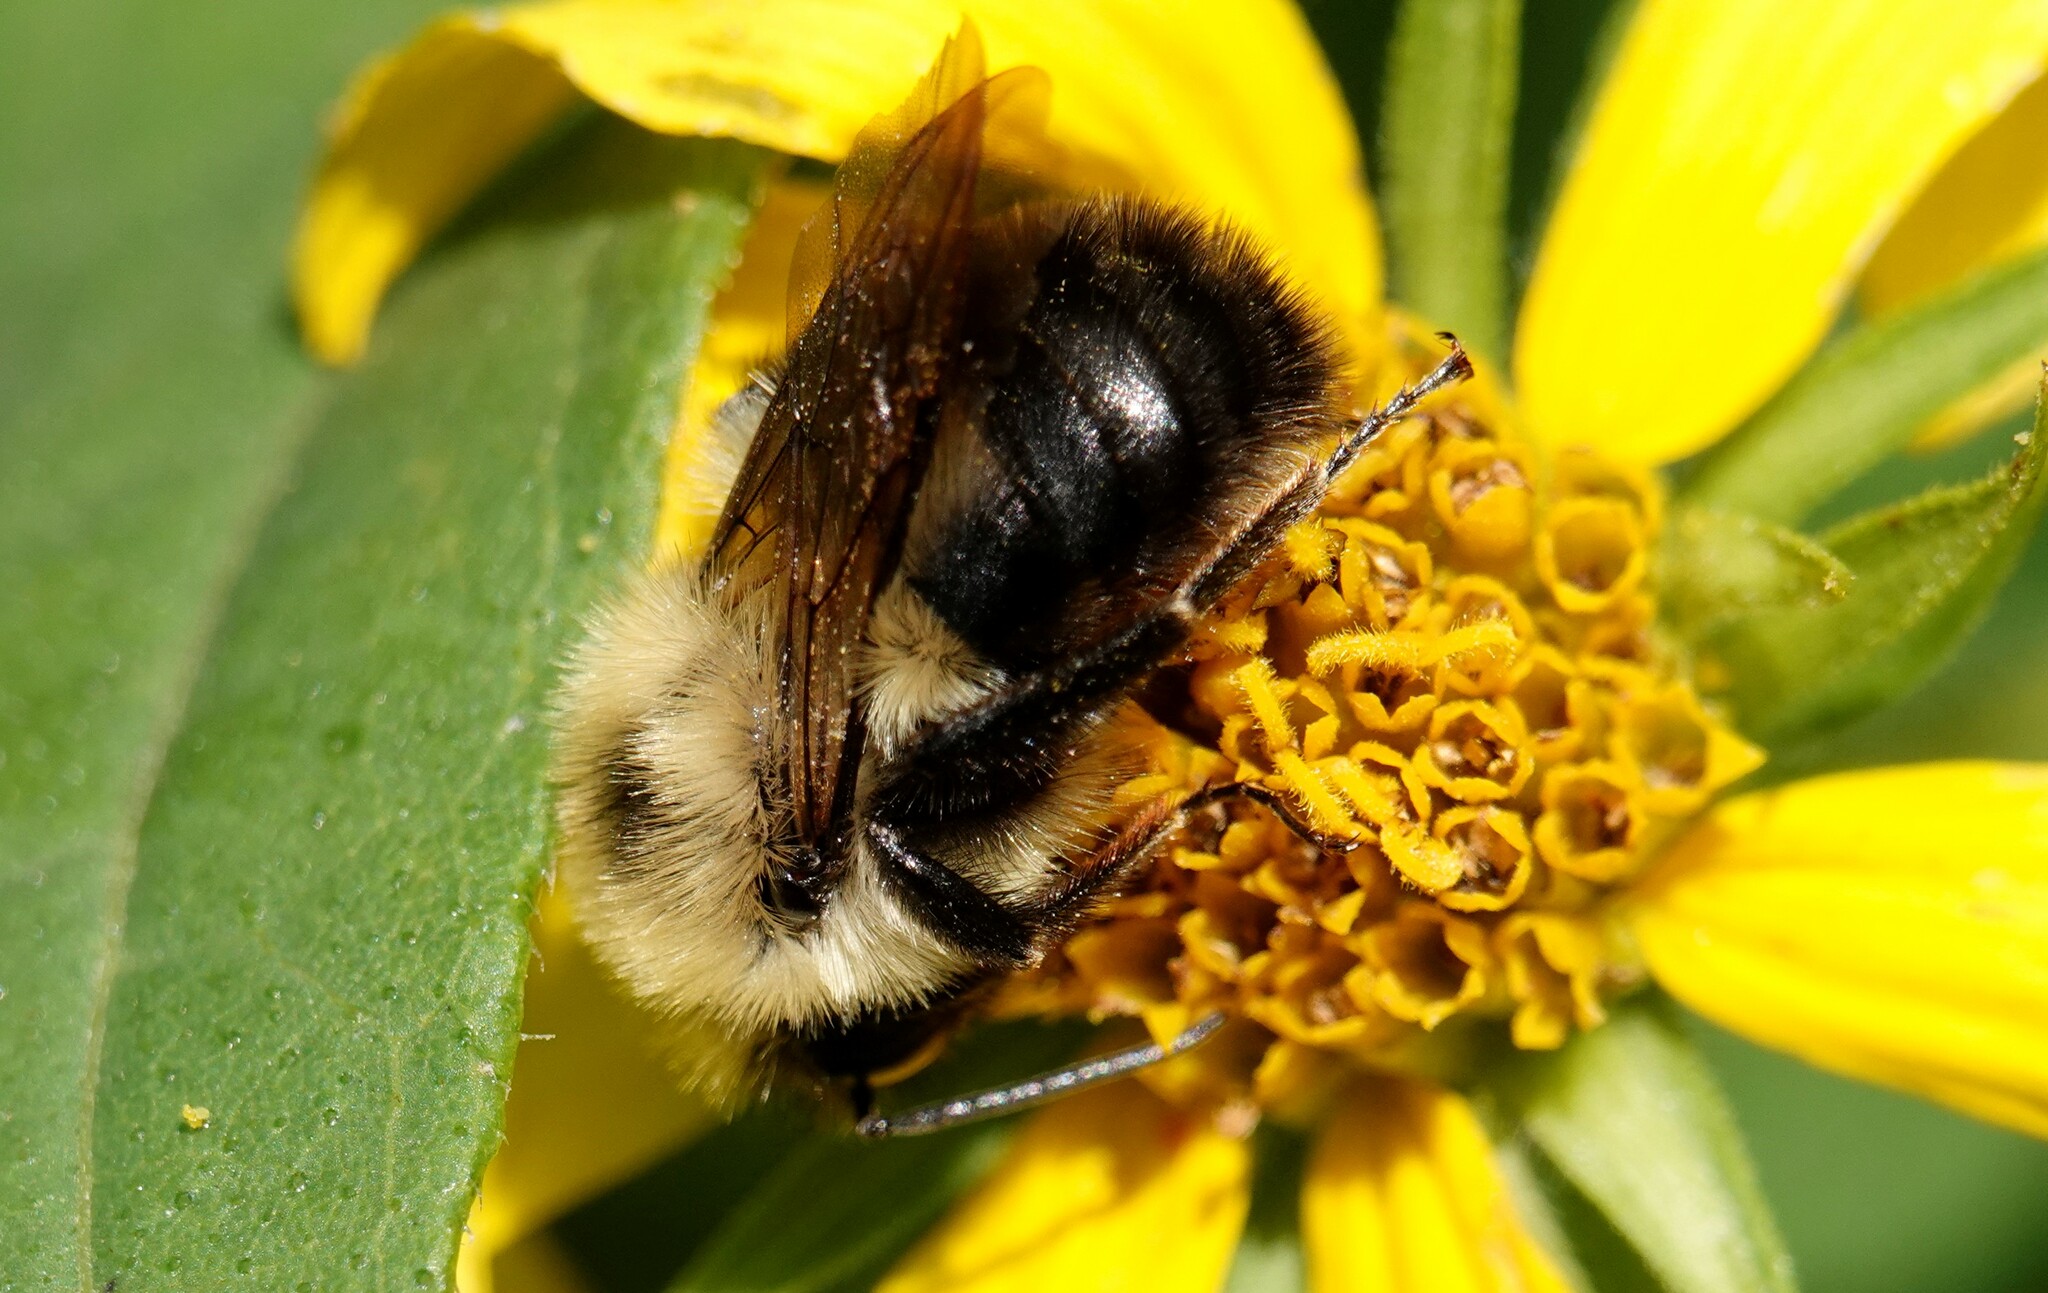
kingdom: Animalia
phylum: Arthropoda
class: Insecta
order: Hymenoptera
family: Apidae
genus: Bombus
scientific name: Bombus bimaculatus
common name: Two-spotted bumble bee
